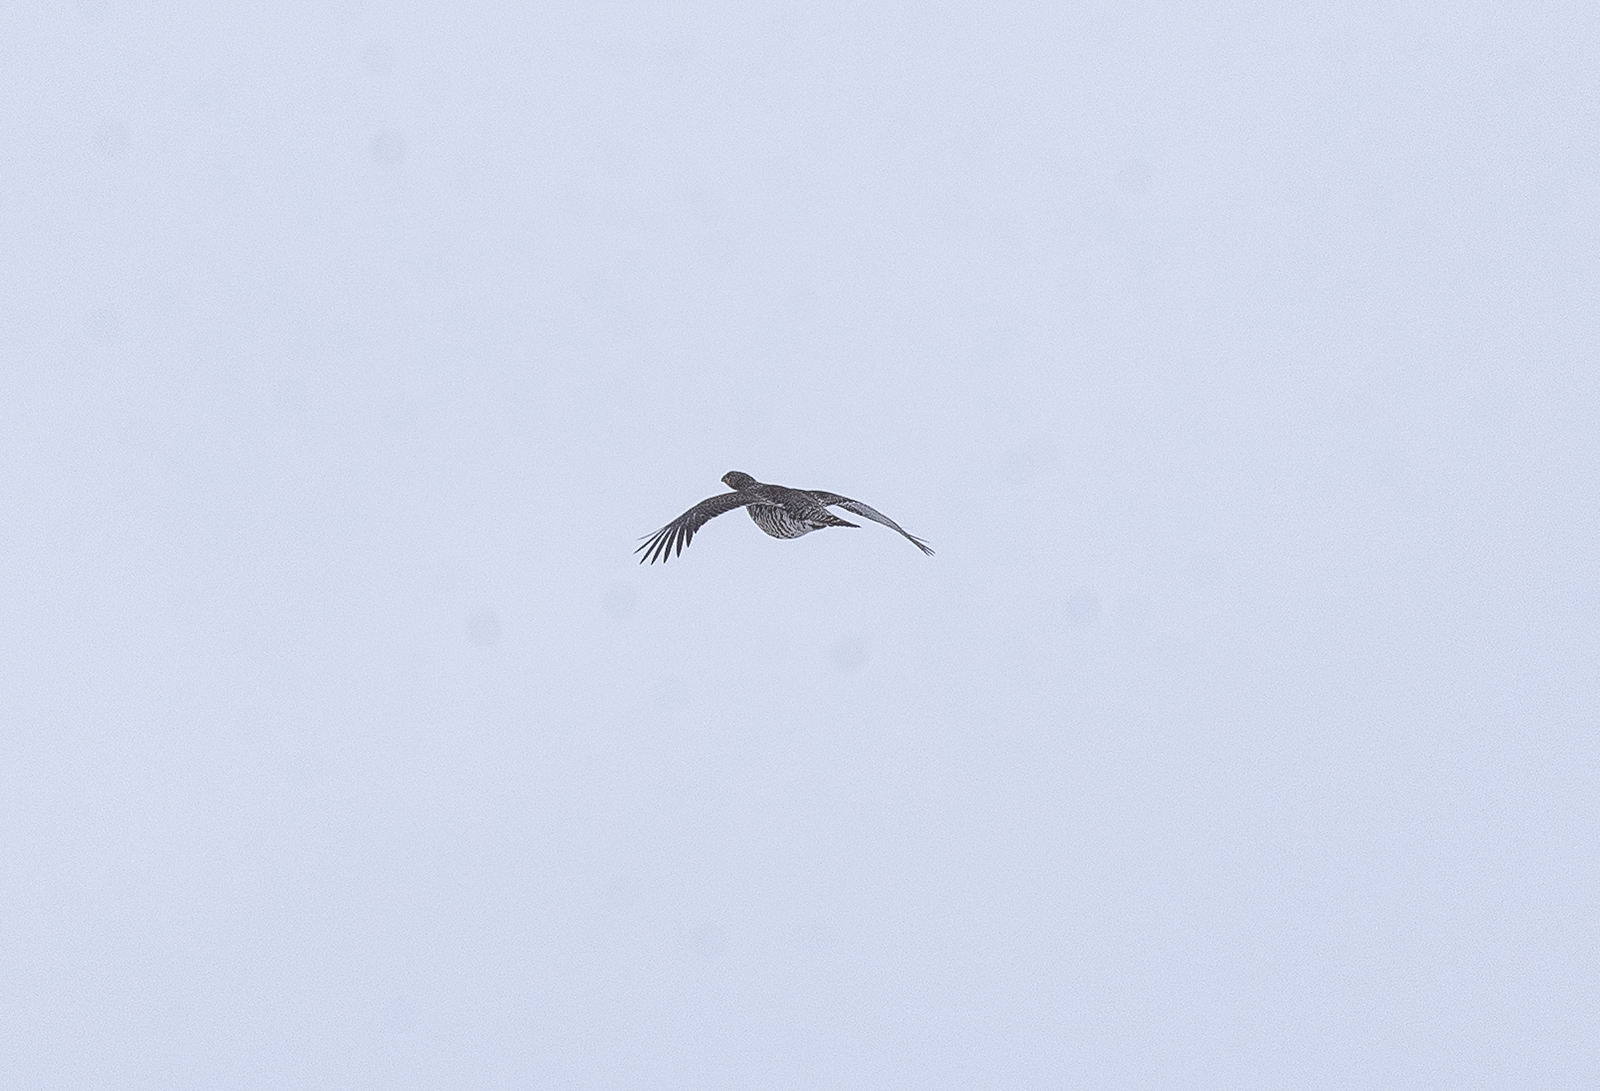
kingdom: Animalia
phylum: Chordata
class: Aves
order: Galliformes
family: Phasianidae
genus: Tetrao
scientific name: Tetrao urogallus
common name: Western capercaillie
